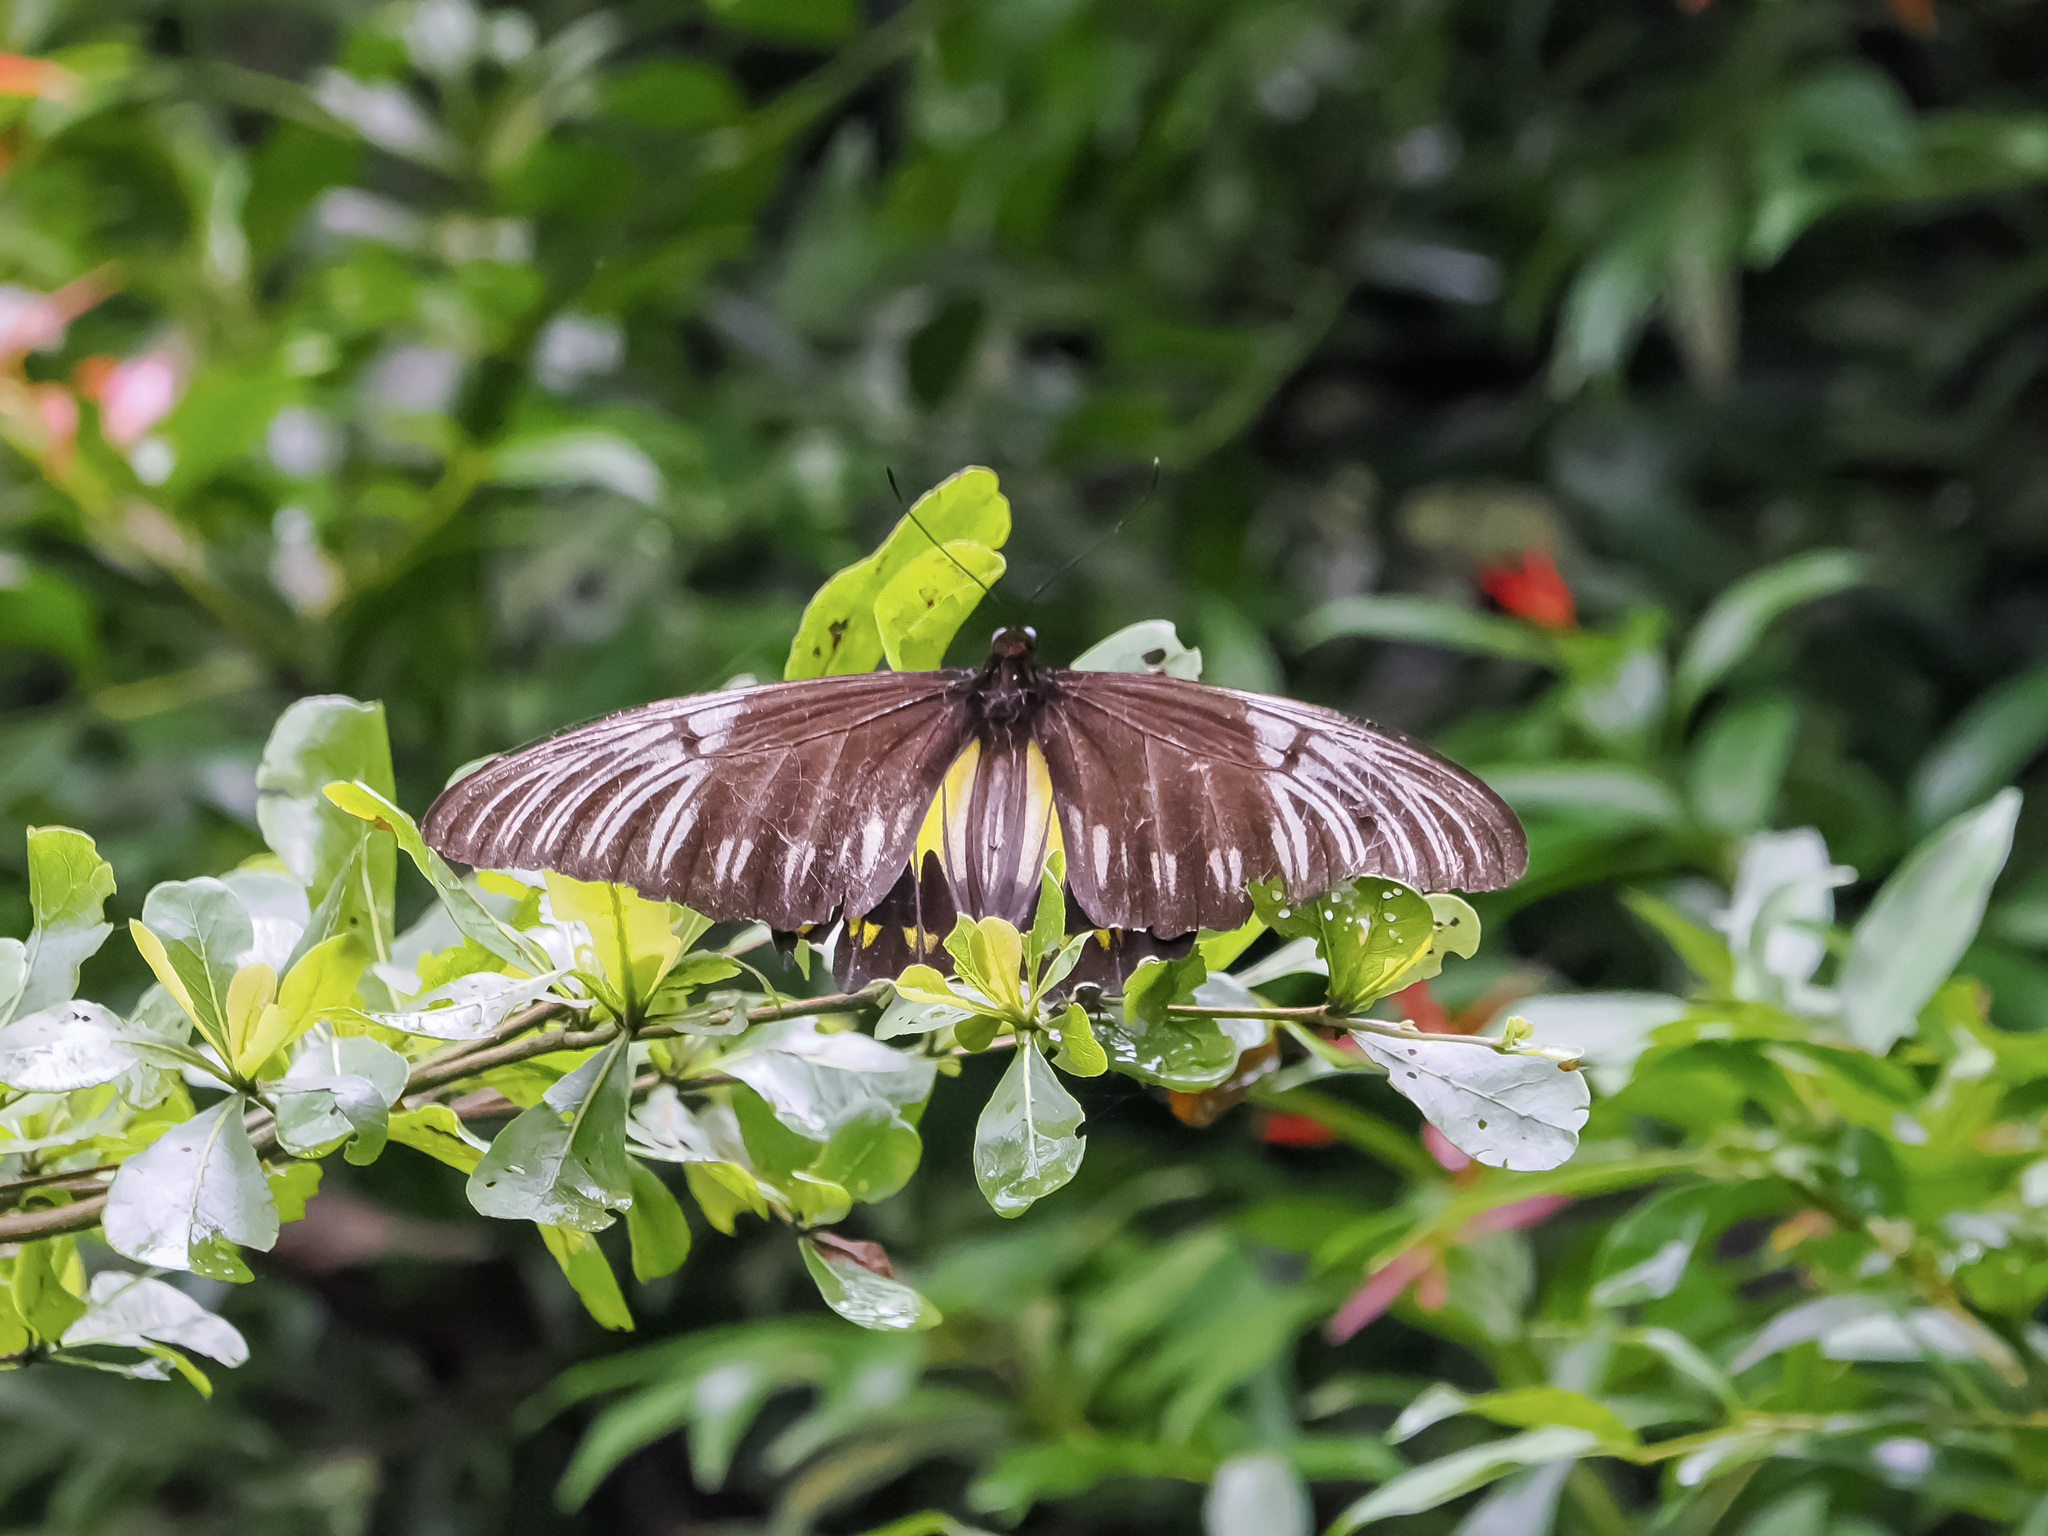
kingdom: Animalia
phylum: Arthropoda
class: Insecta
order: Lepidoptera
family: Papilionidae
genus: Troides
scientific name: Troides amphrysus
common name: Malay birdwing
